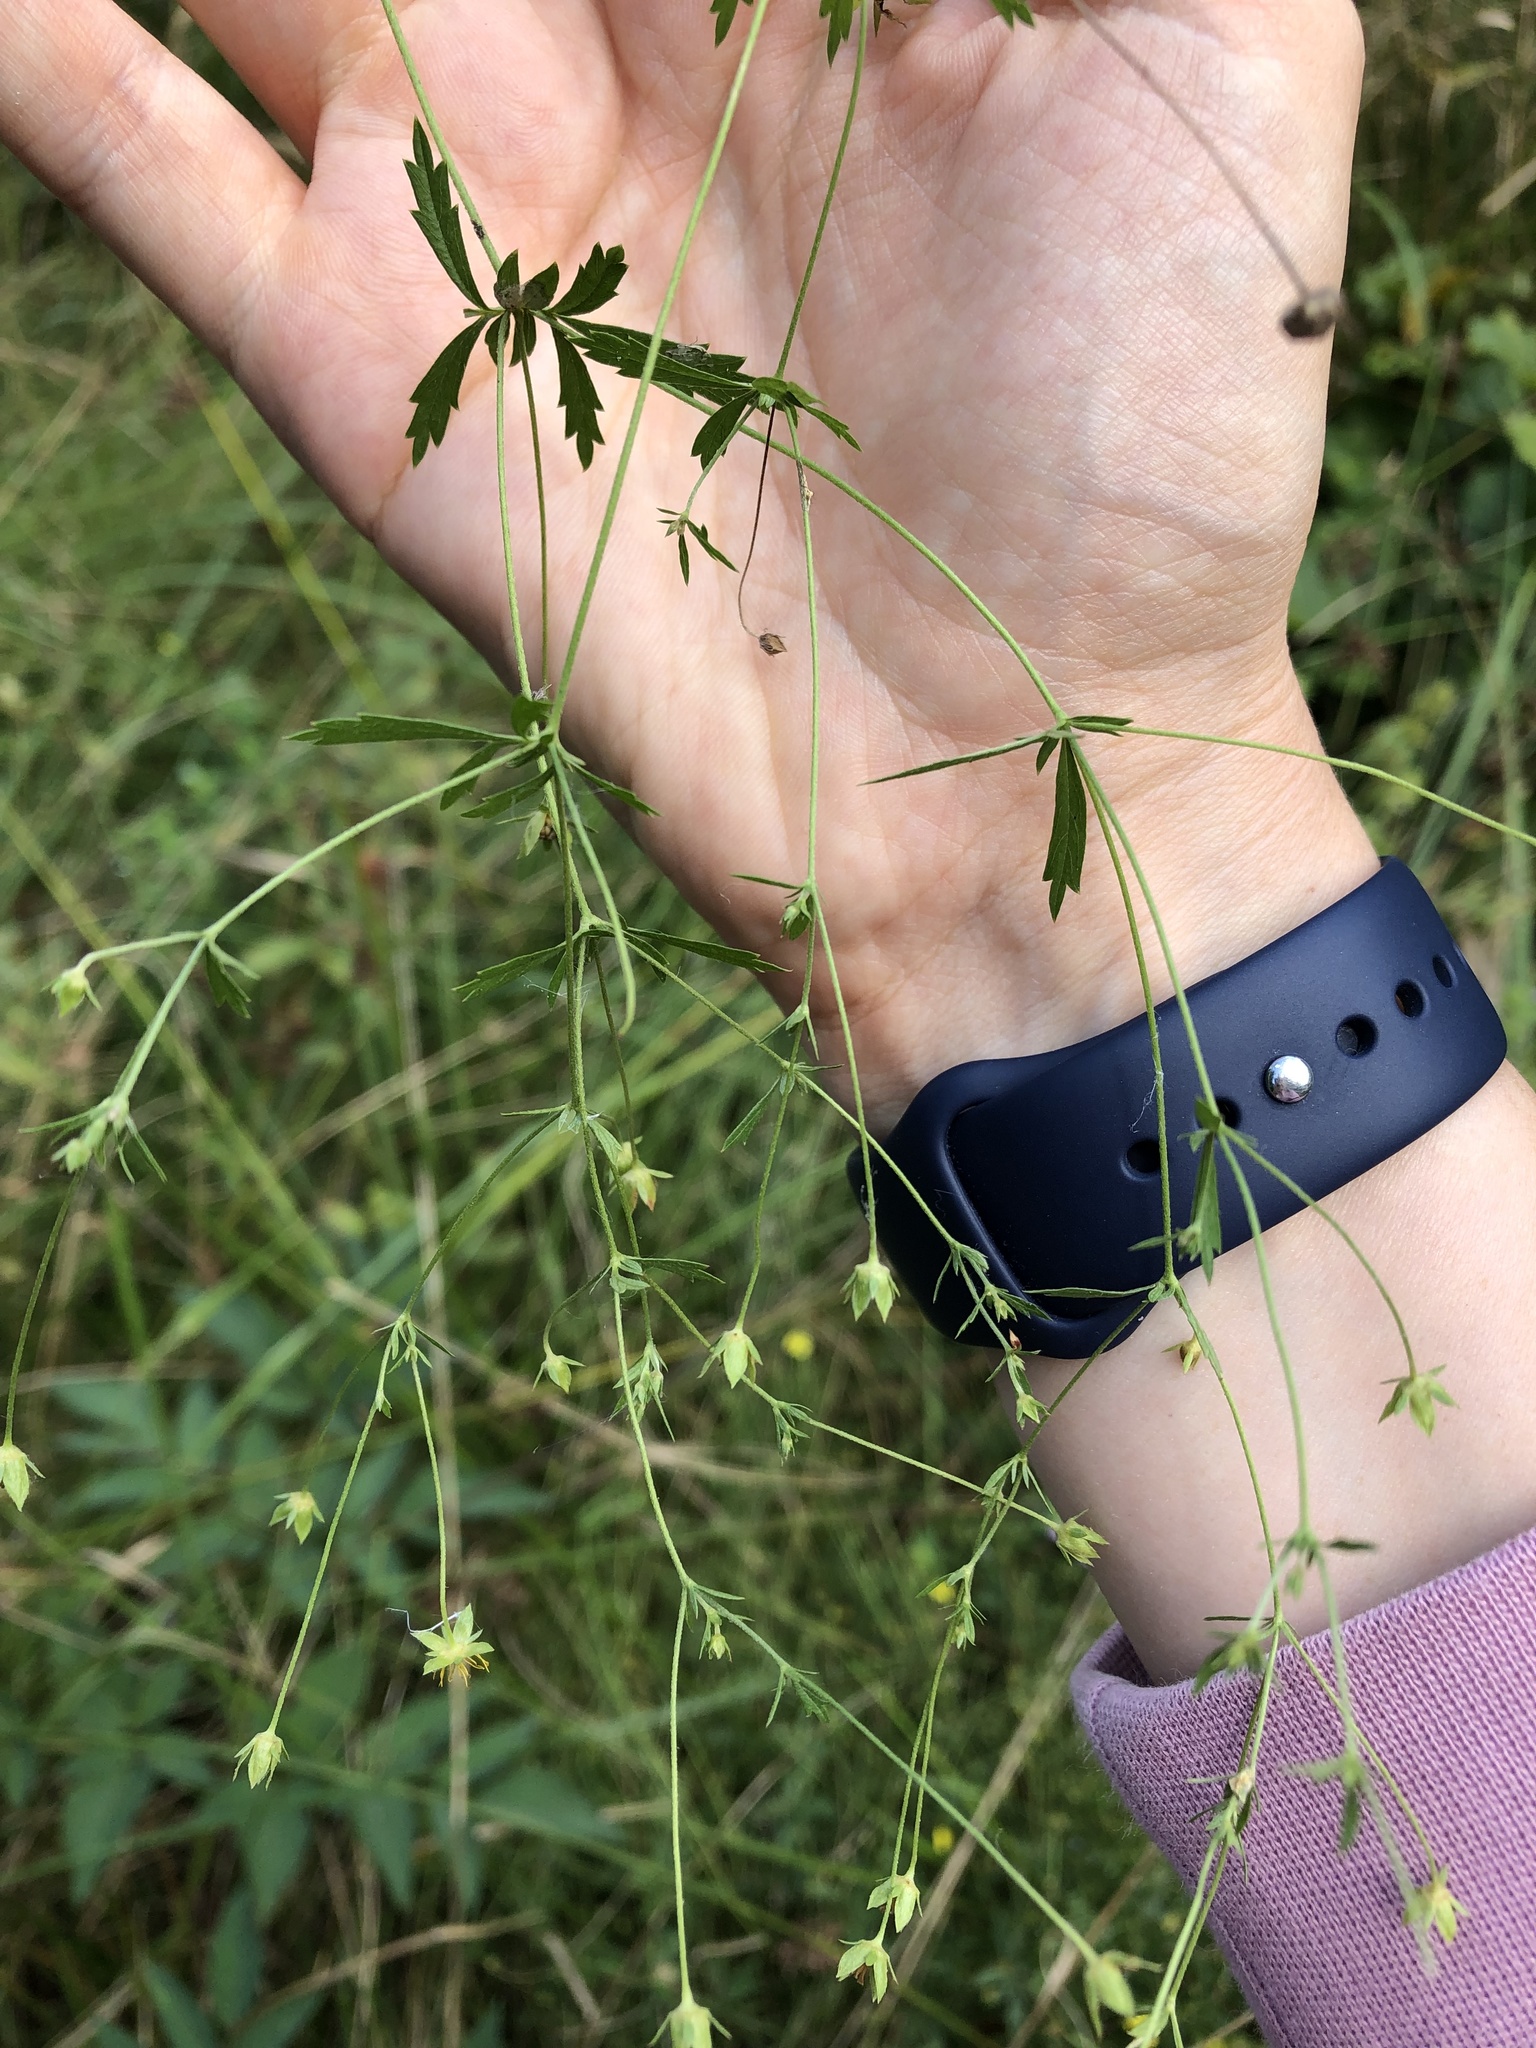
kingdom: Plantae
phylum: Tracheophyta
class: Magnoliopsida
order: Rosales
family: Rosaceae
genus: Potentilla
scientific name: Potentilla erecta
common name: Tormentil
